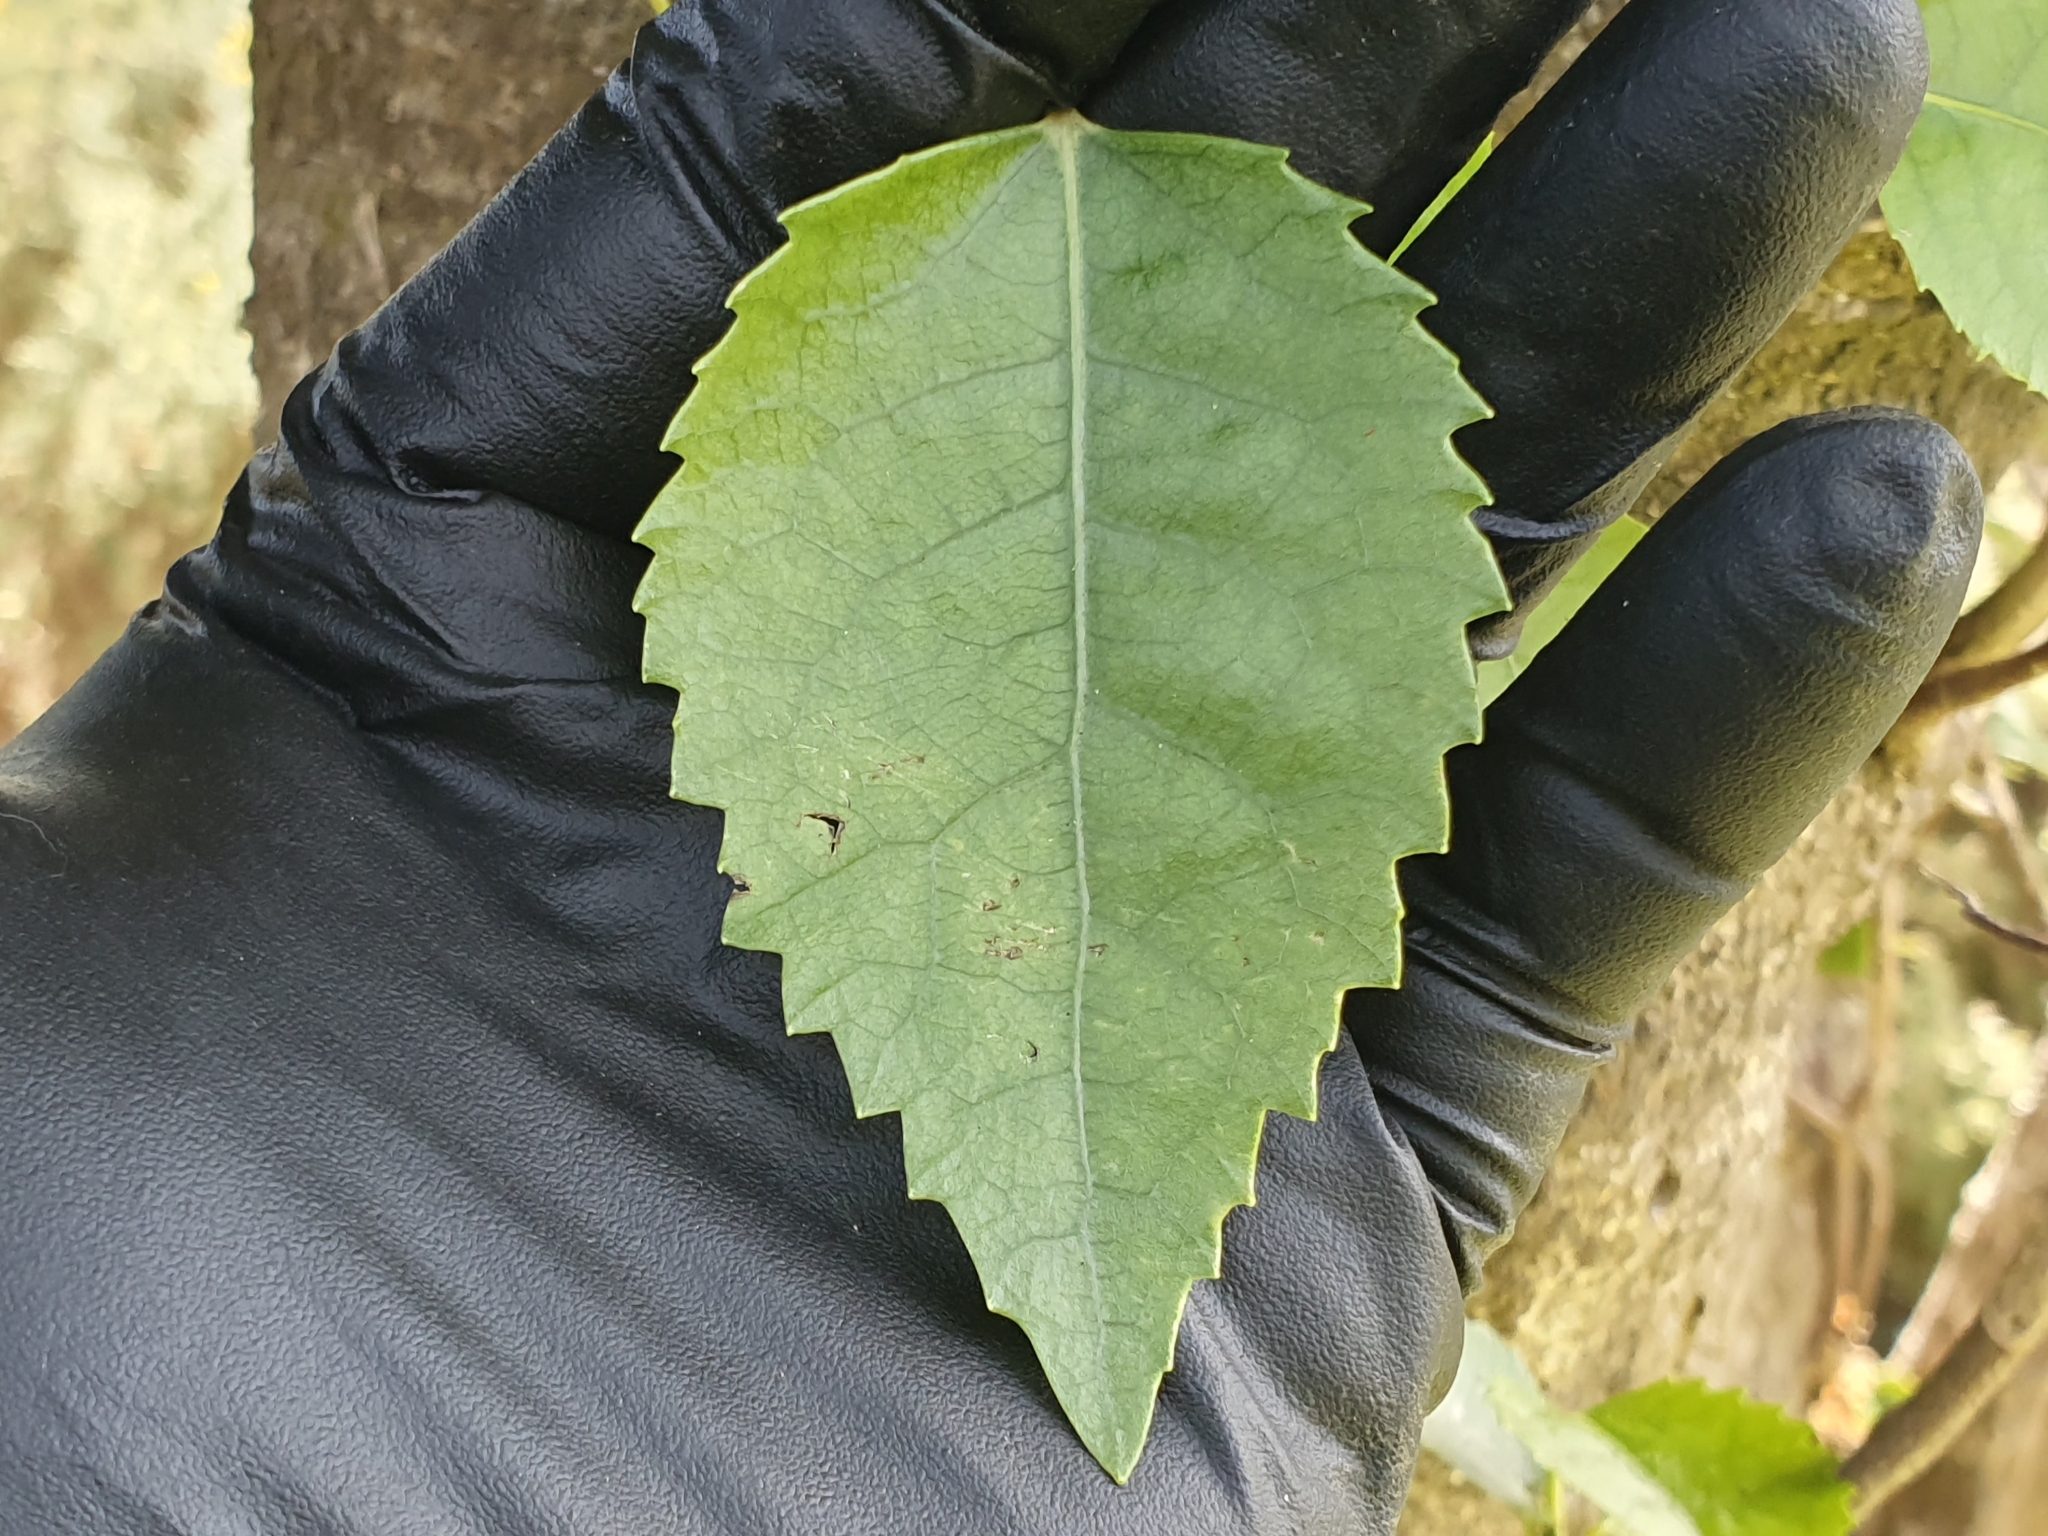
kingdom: Plantae
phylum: Tracheophyta
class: Magnoliopsida
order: Malvales
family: Malvaceae
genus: Hoheria
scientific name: Hoheria populnea
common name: Lacebark
